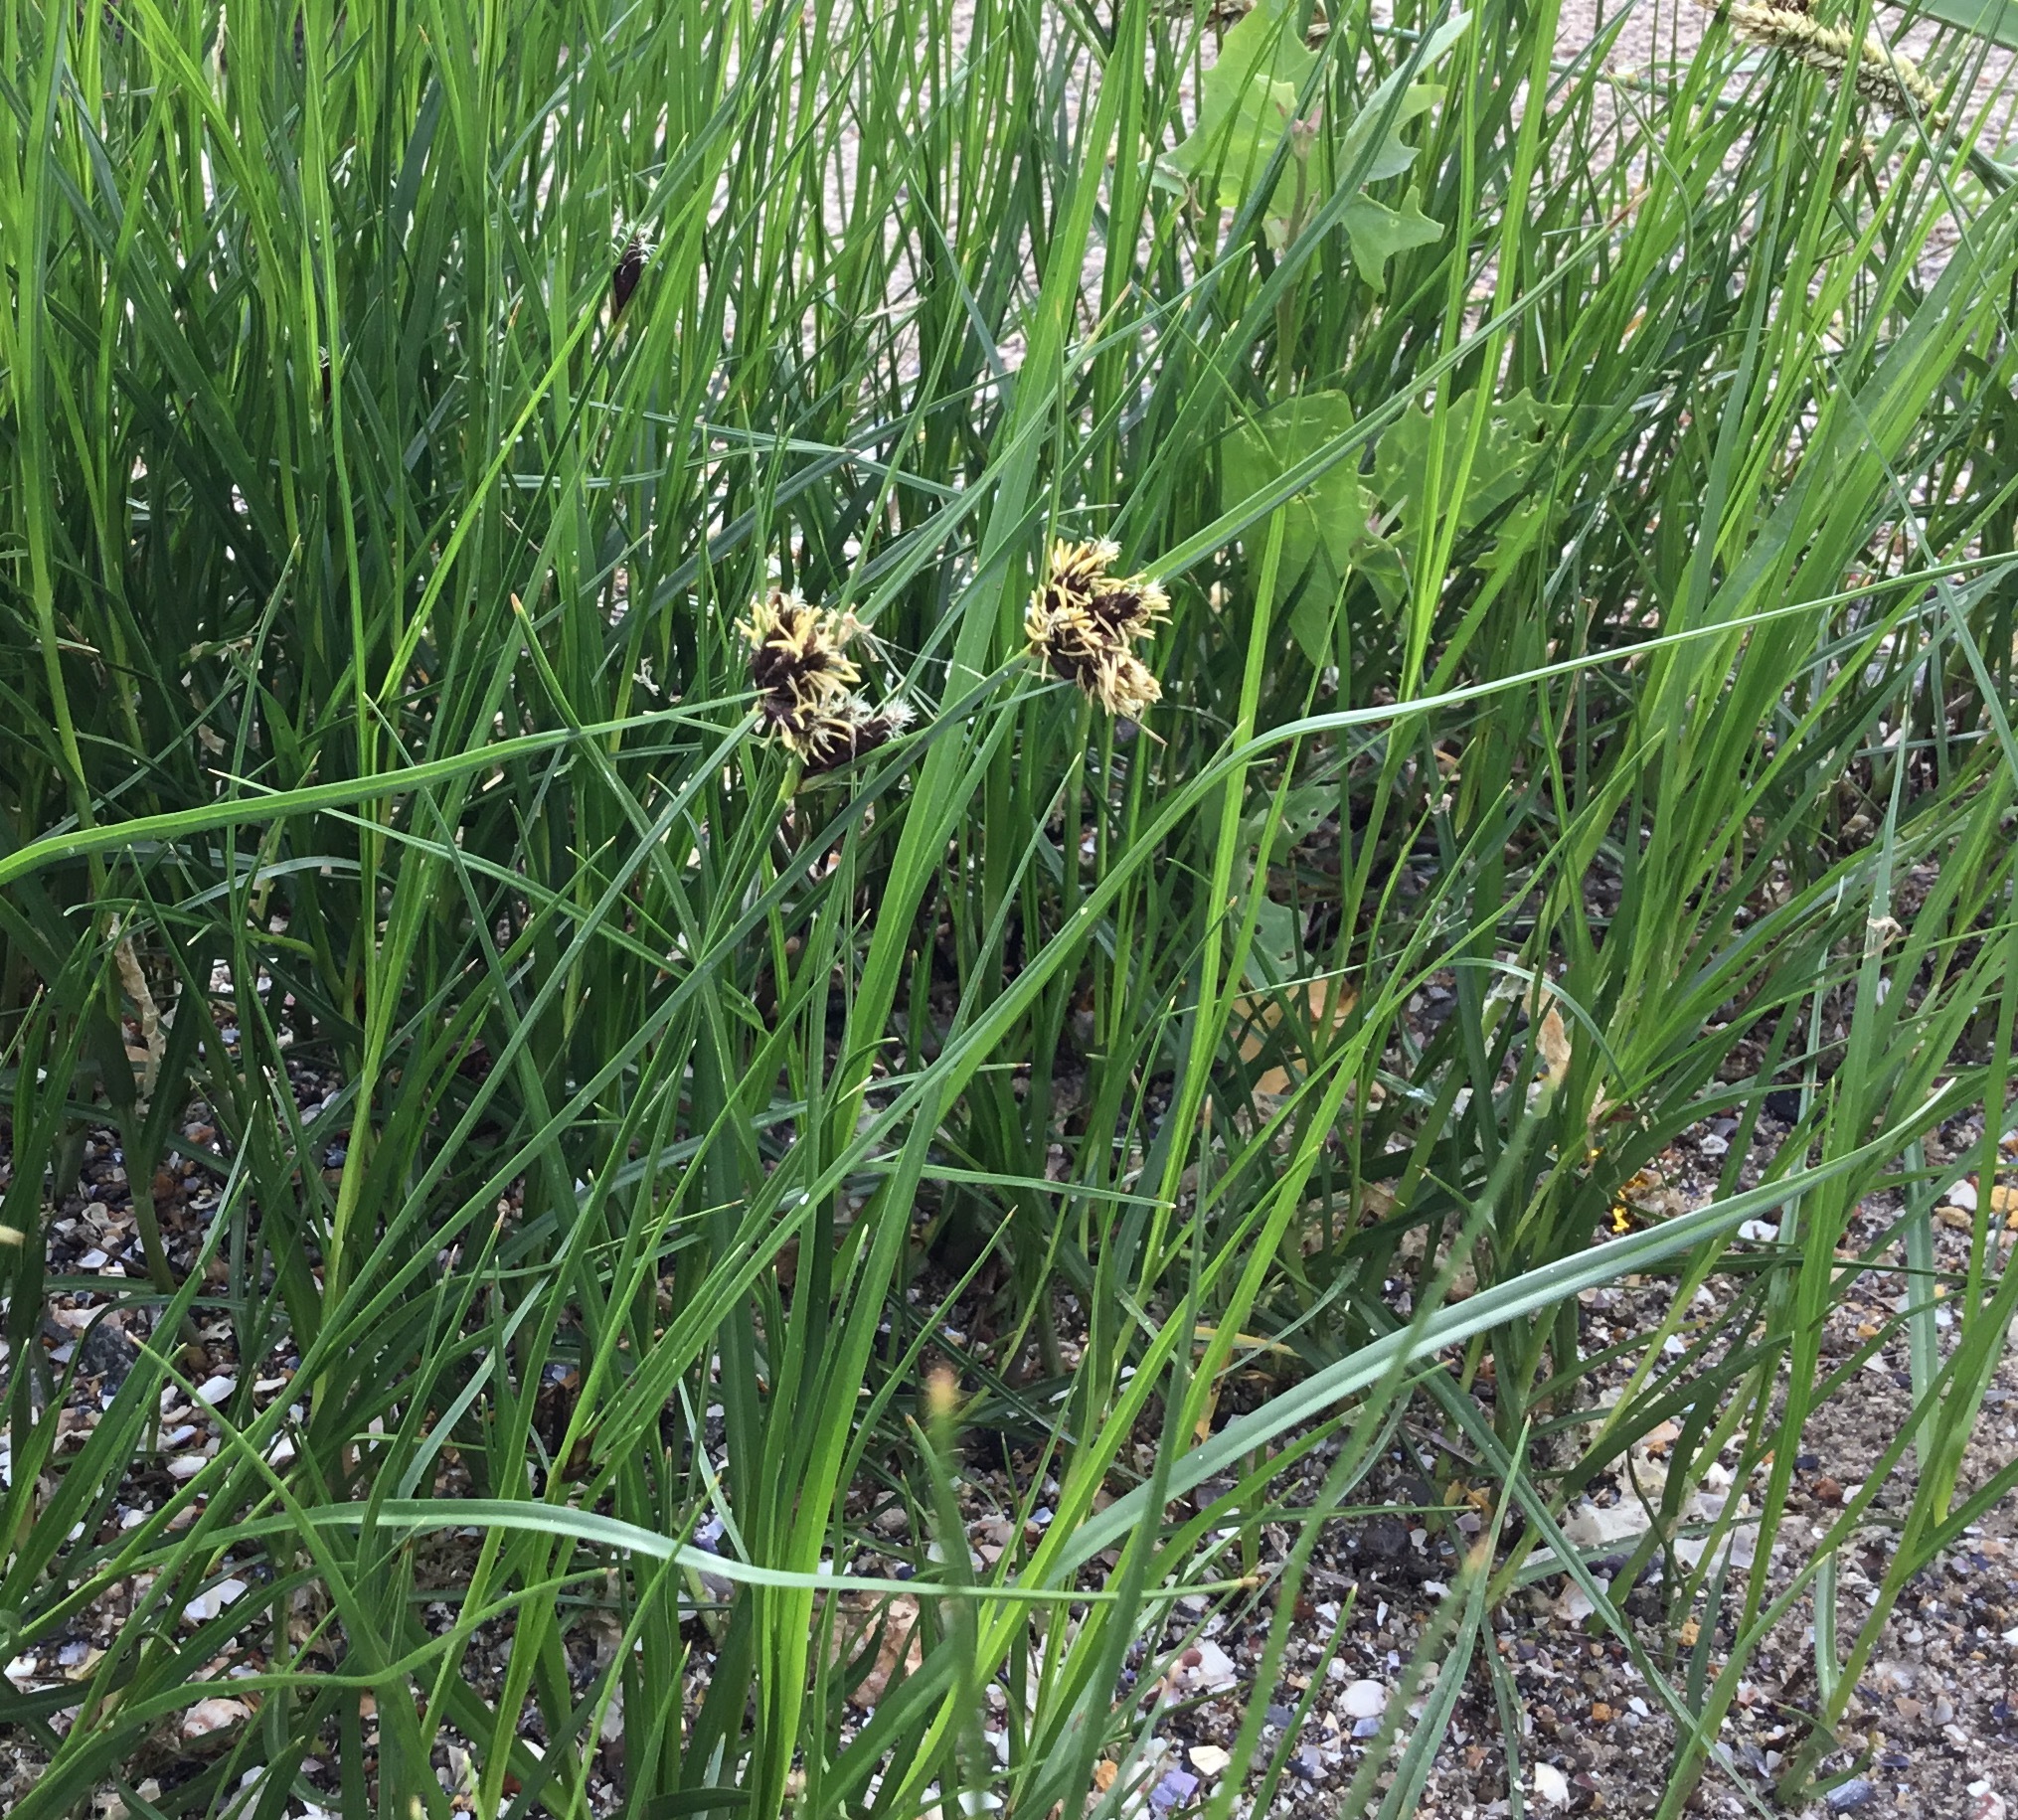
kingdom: Plantae
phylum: Tracheophyta
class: Liliopsida
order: Poales
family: Cyperaceae
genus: Bolboschoenus
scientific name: Bolboschoenus maritimus
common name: Sea club-rush
